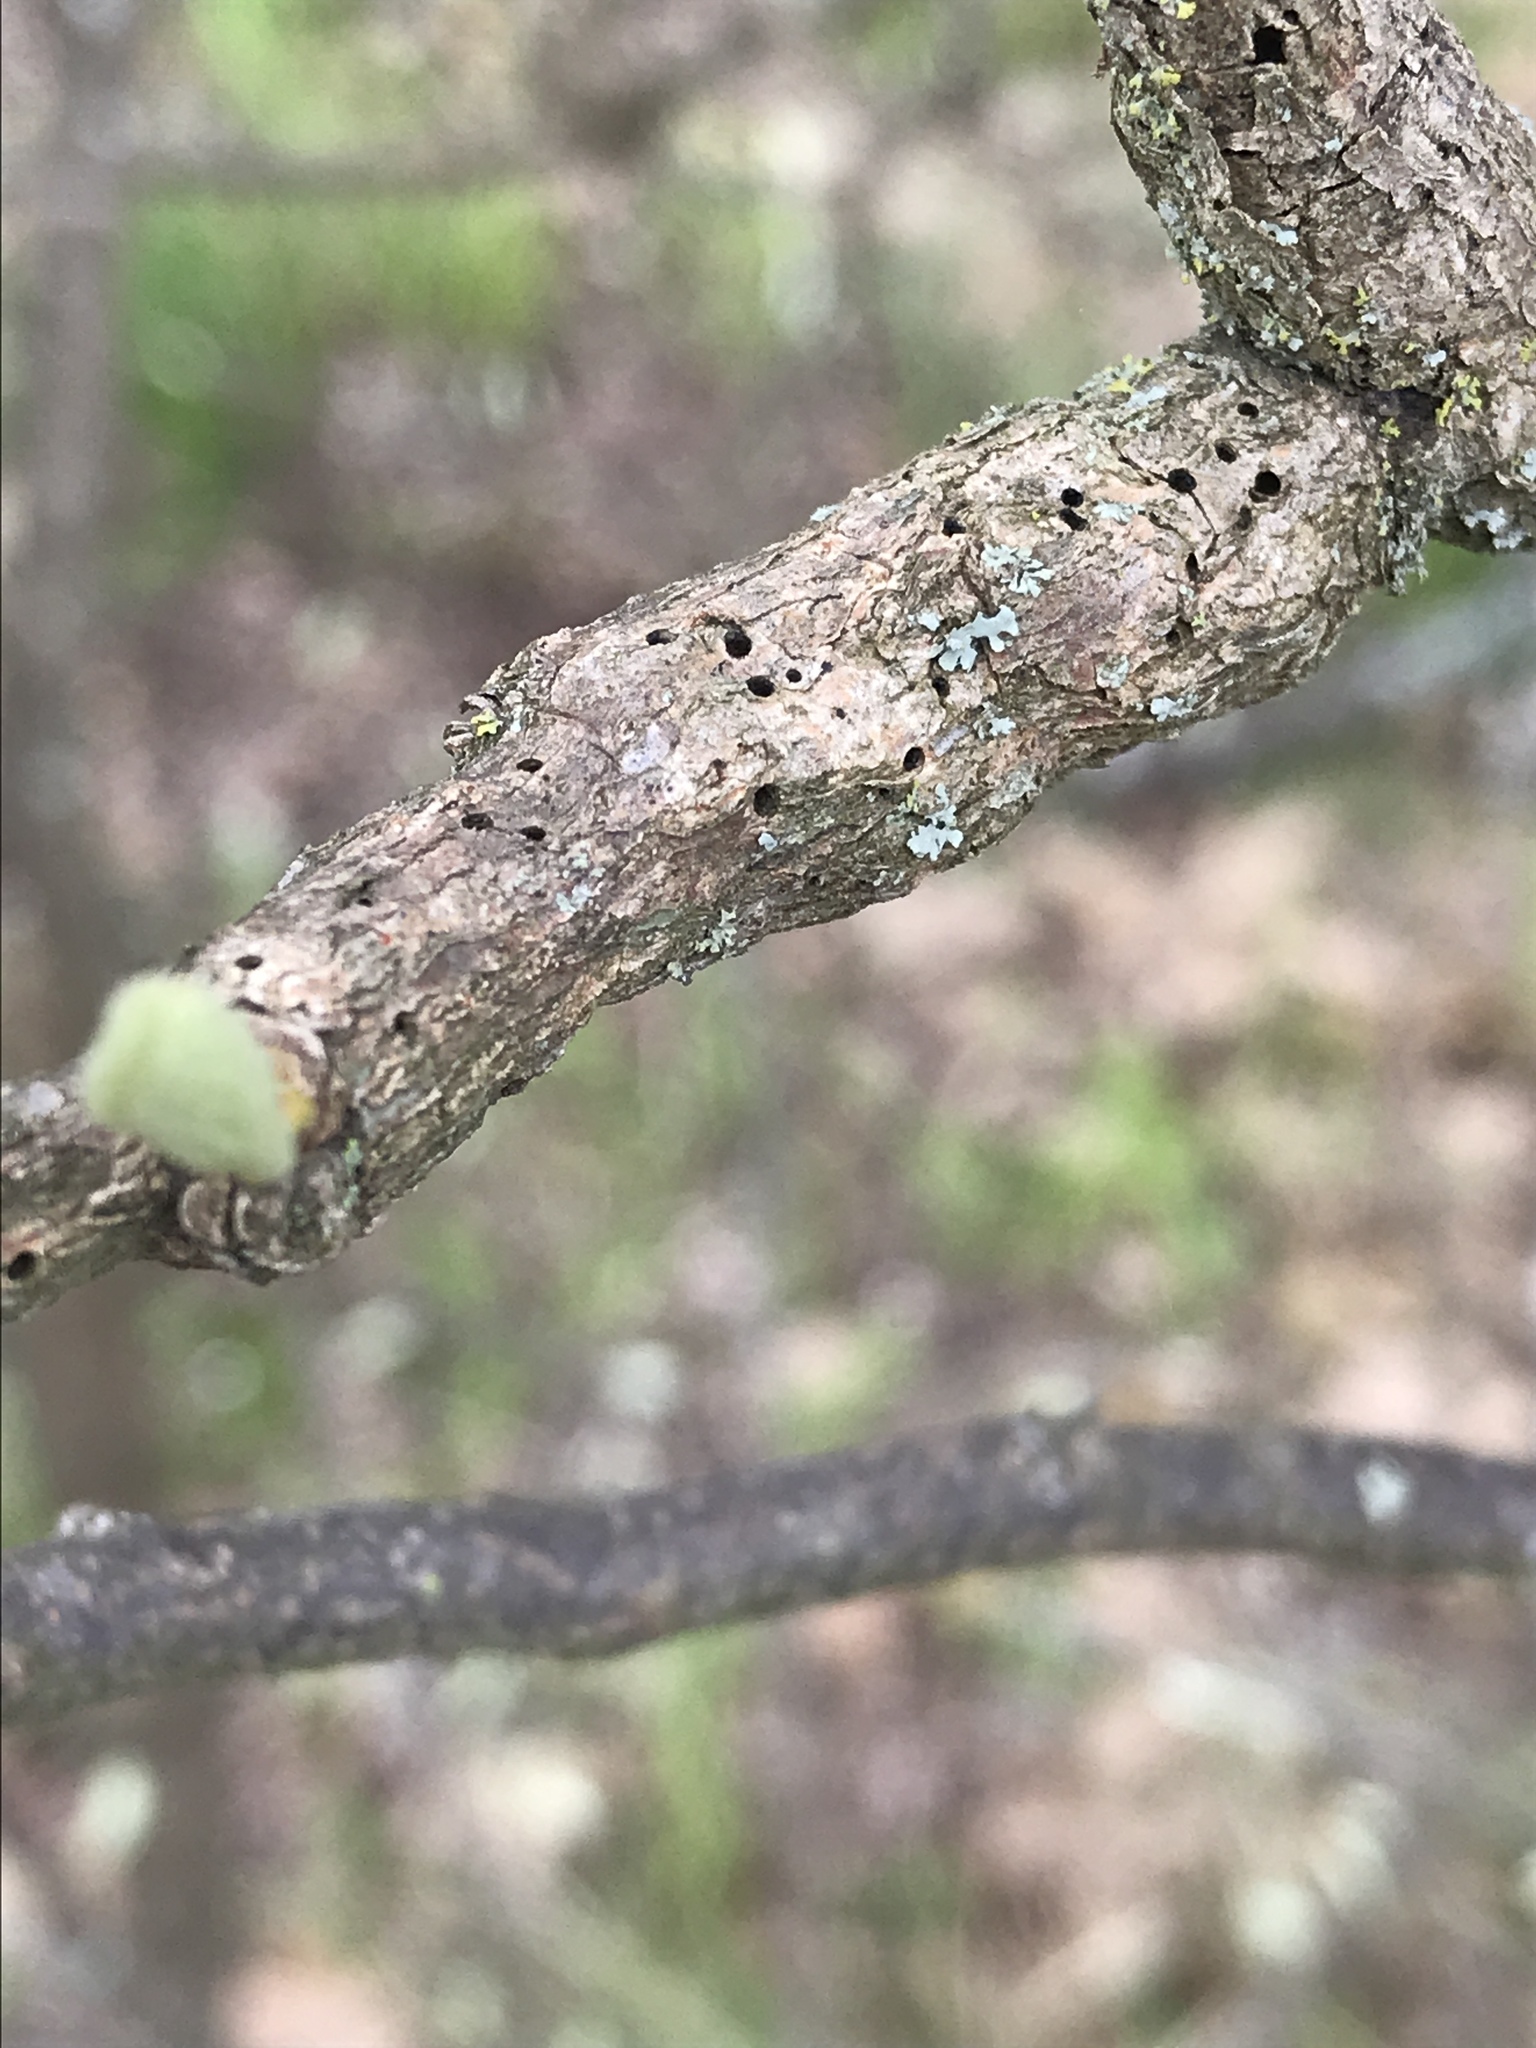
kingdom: Animalia
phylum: Arthropoda
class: Insecta
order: Diptera
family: Cecidomyiidae
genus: Bruggmanniella
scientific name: Bruggmanniella bumeliae
